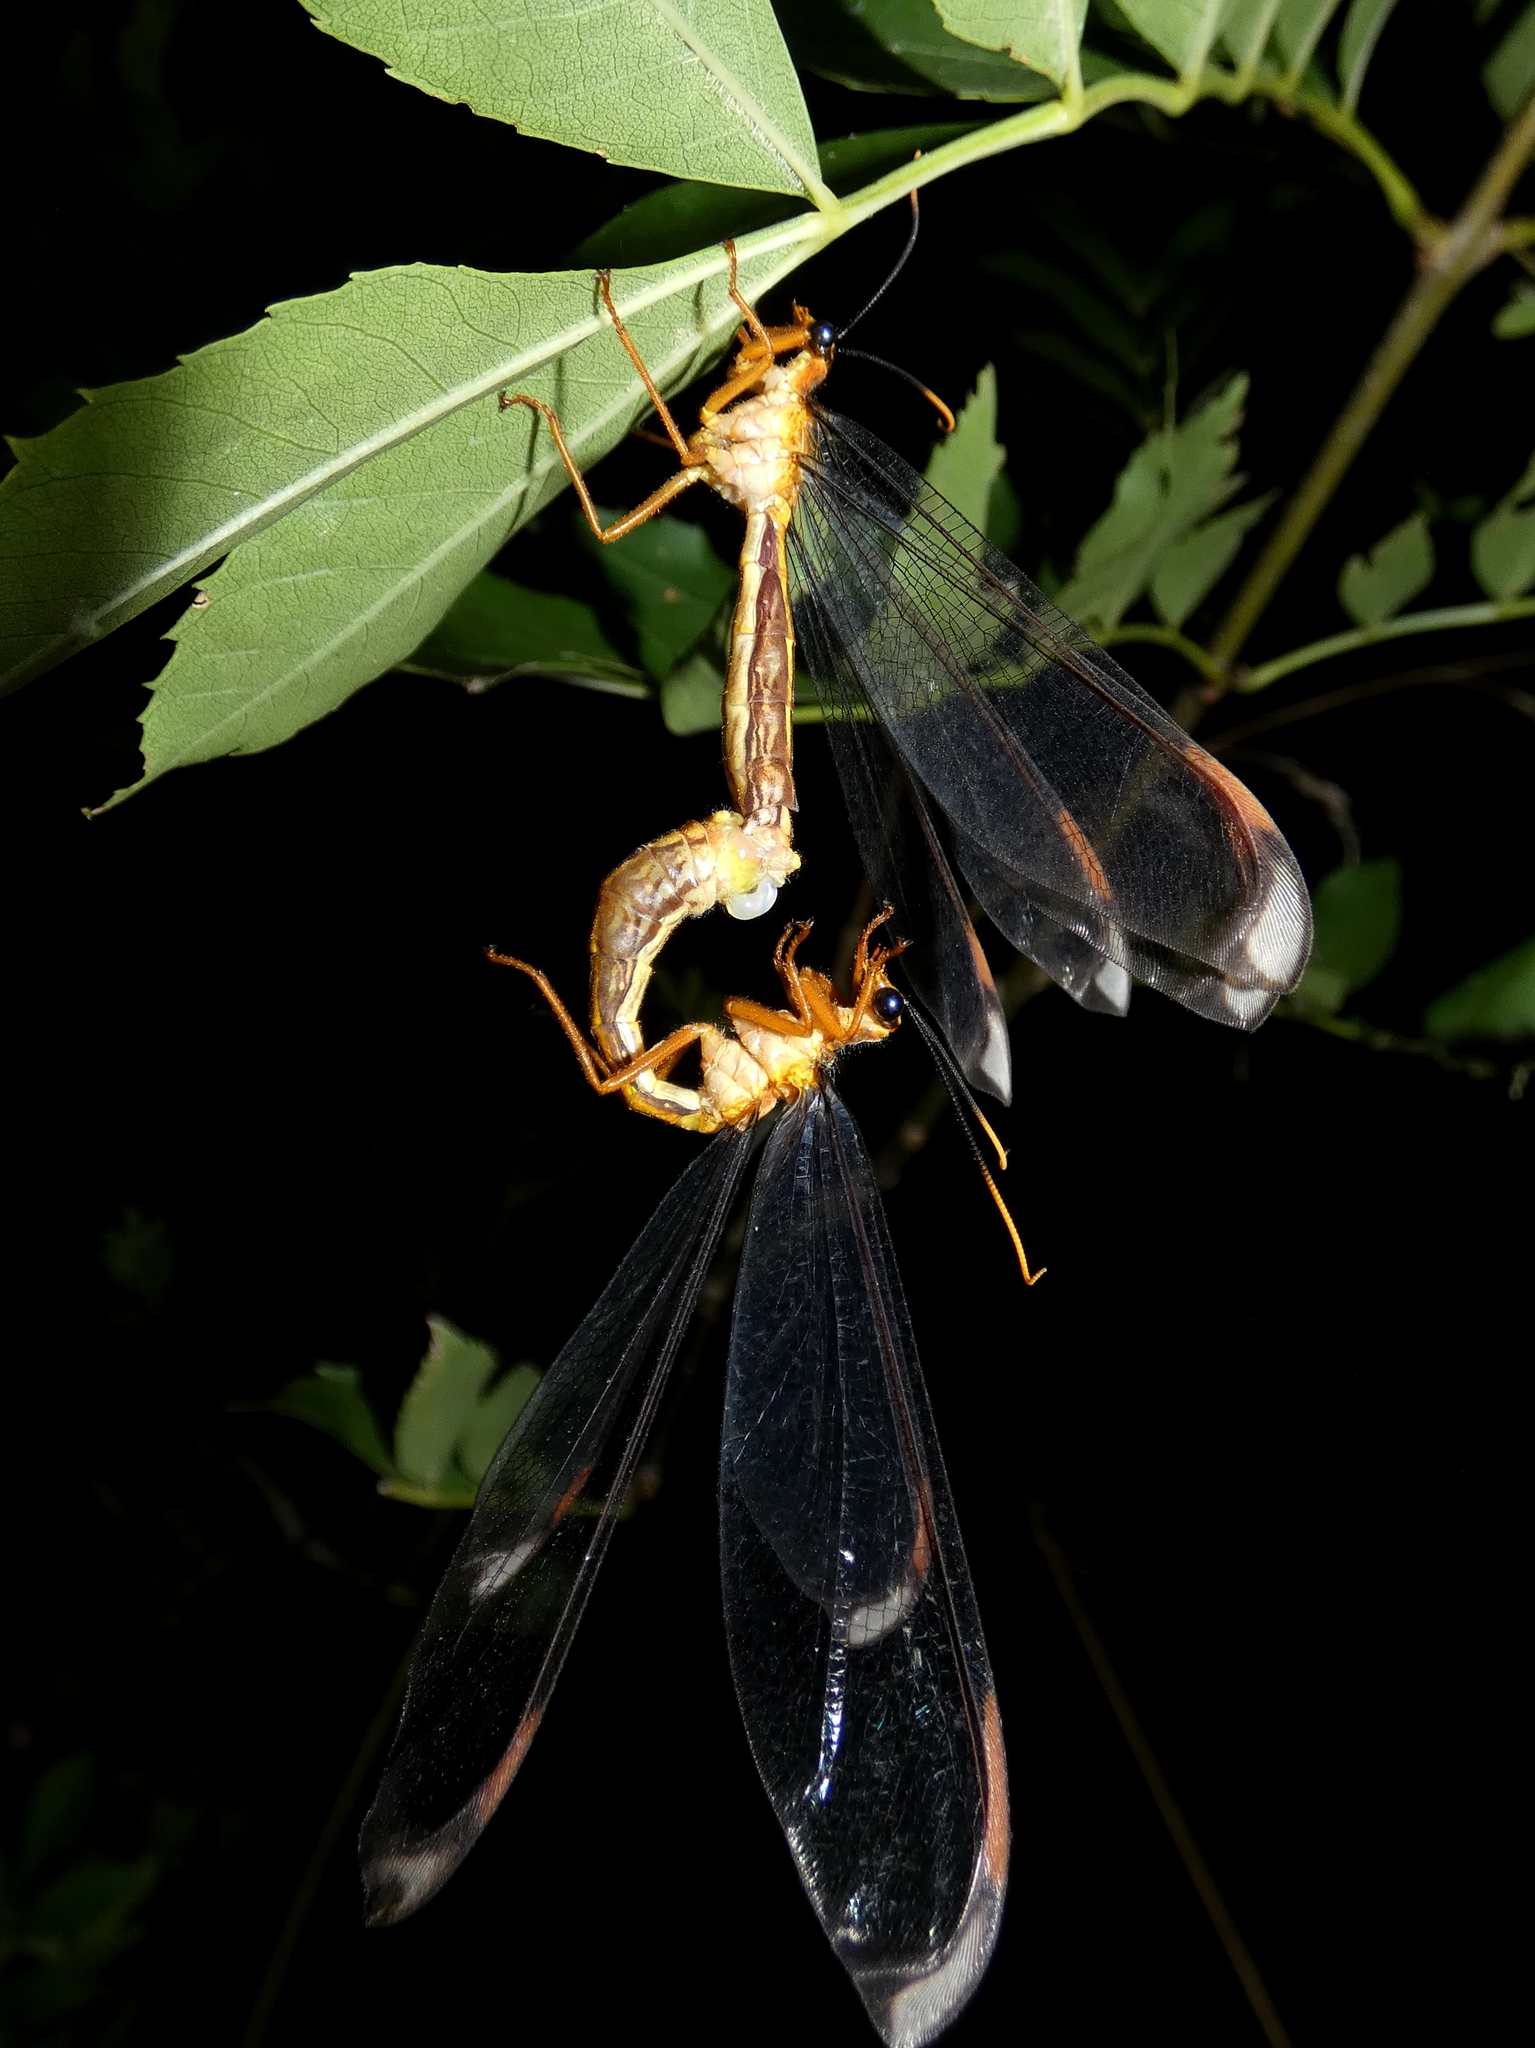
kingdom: Animalia
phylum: Arthropoda
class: Insecta
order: Neuroptera
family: Nymphidae
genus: Nymphes
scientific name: Nymphes myrmeleonoides
